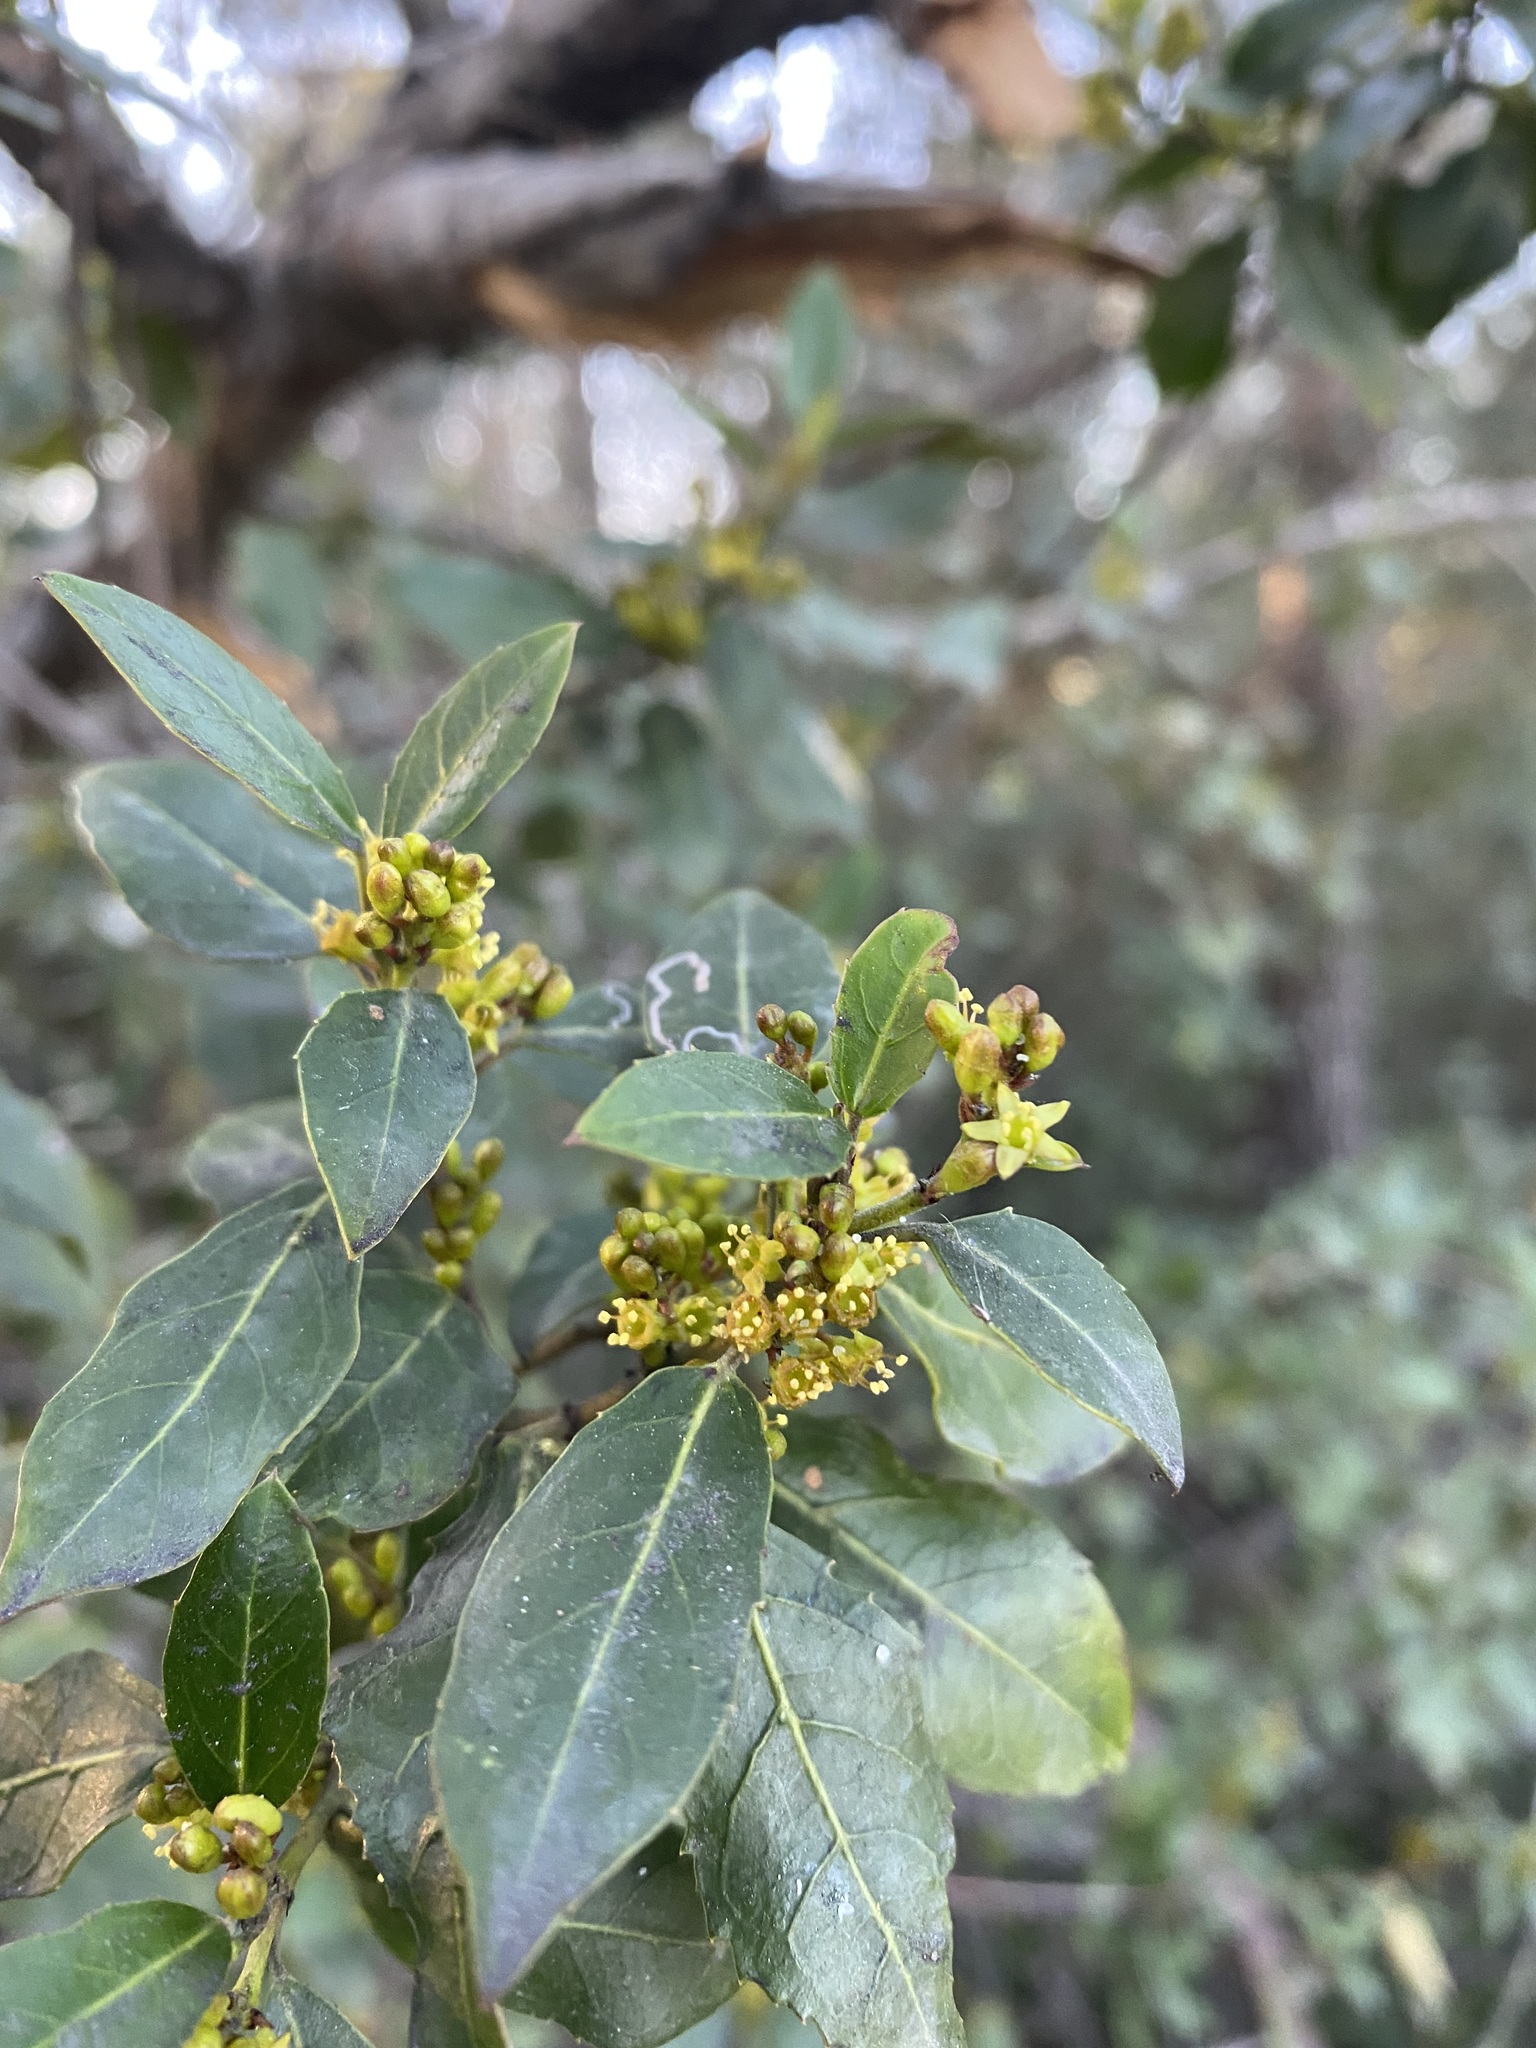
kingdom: Plantae
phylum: Tracheophyta
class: Magnoliopsida
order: Rosales
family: Rhamnaceae
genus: Rhamnus
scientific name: Rhamnus alaternus
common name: Mediterranean buckthorn
